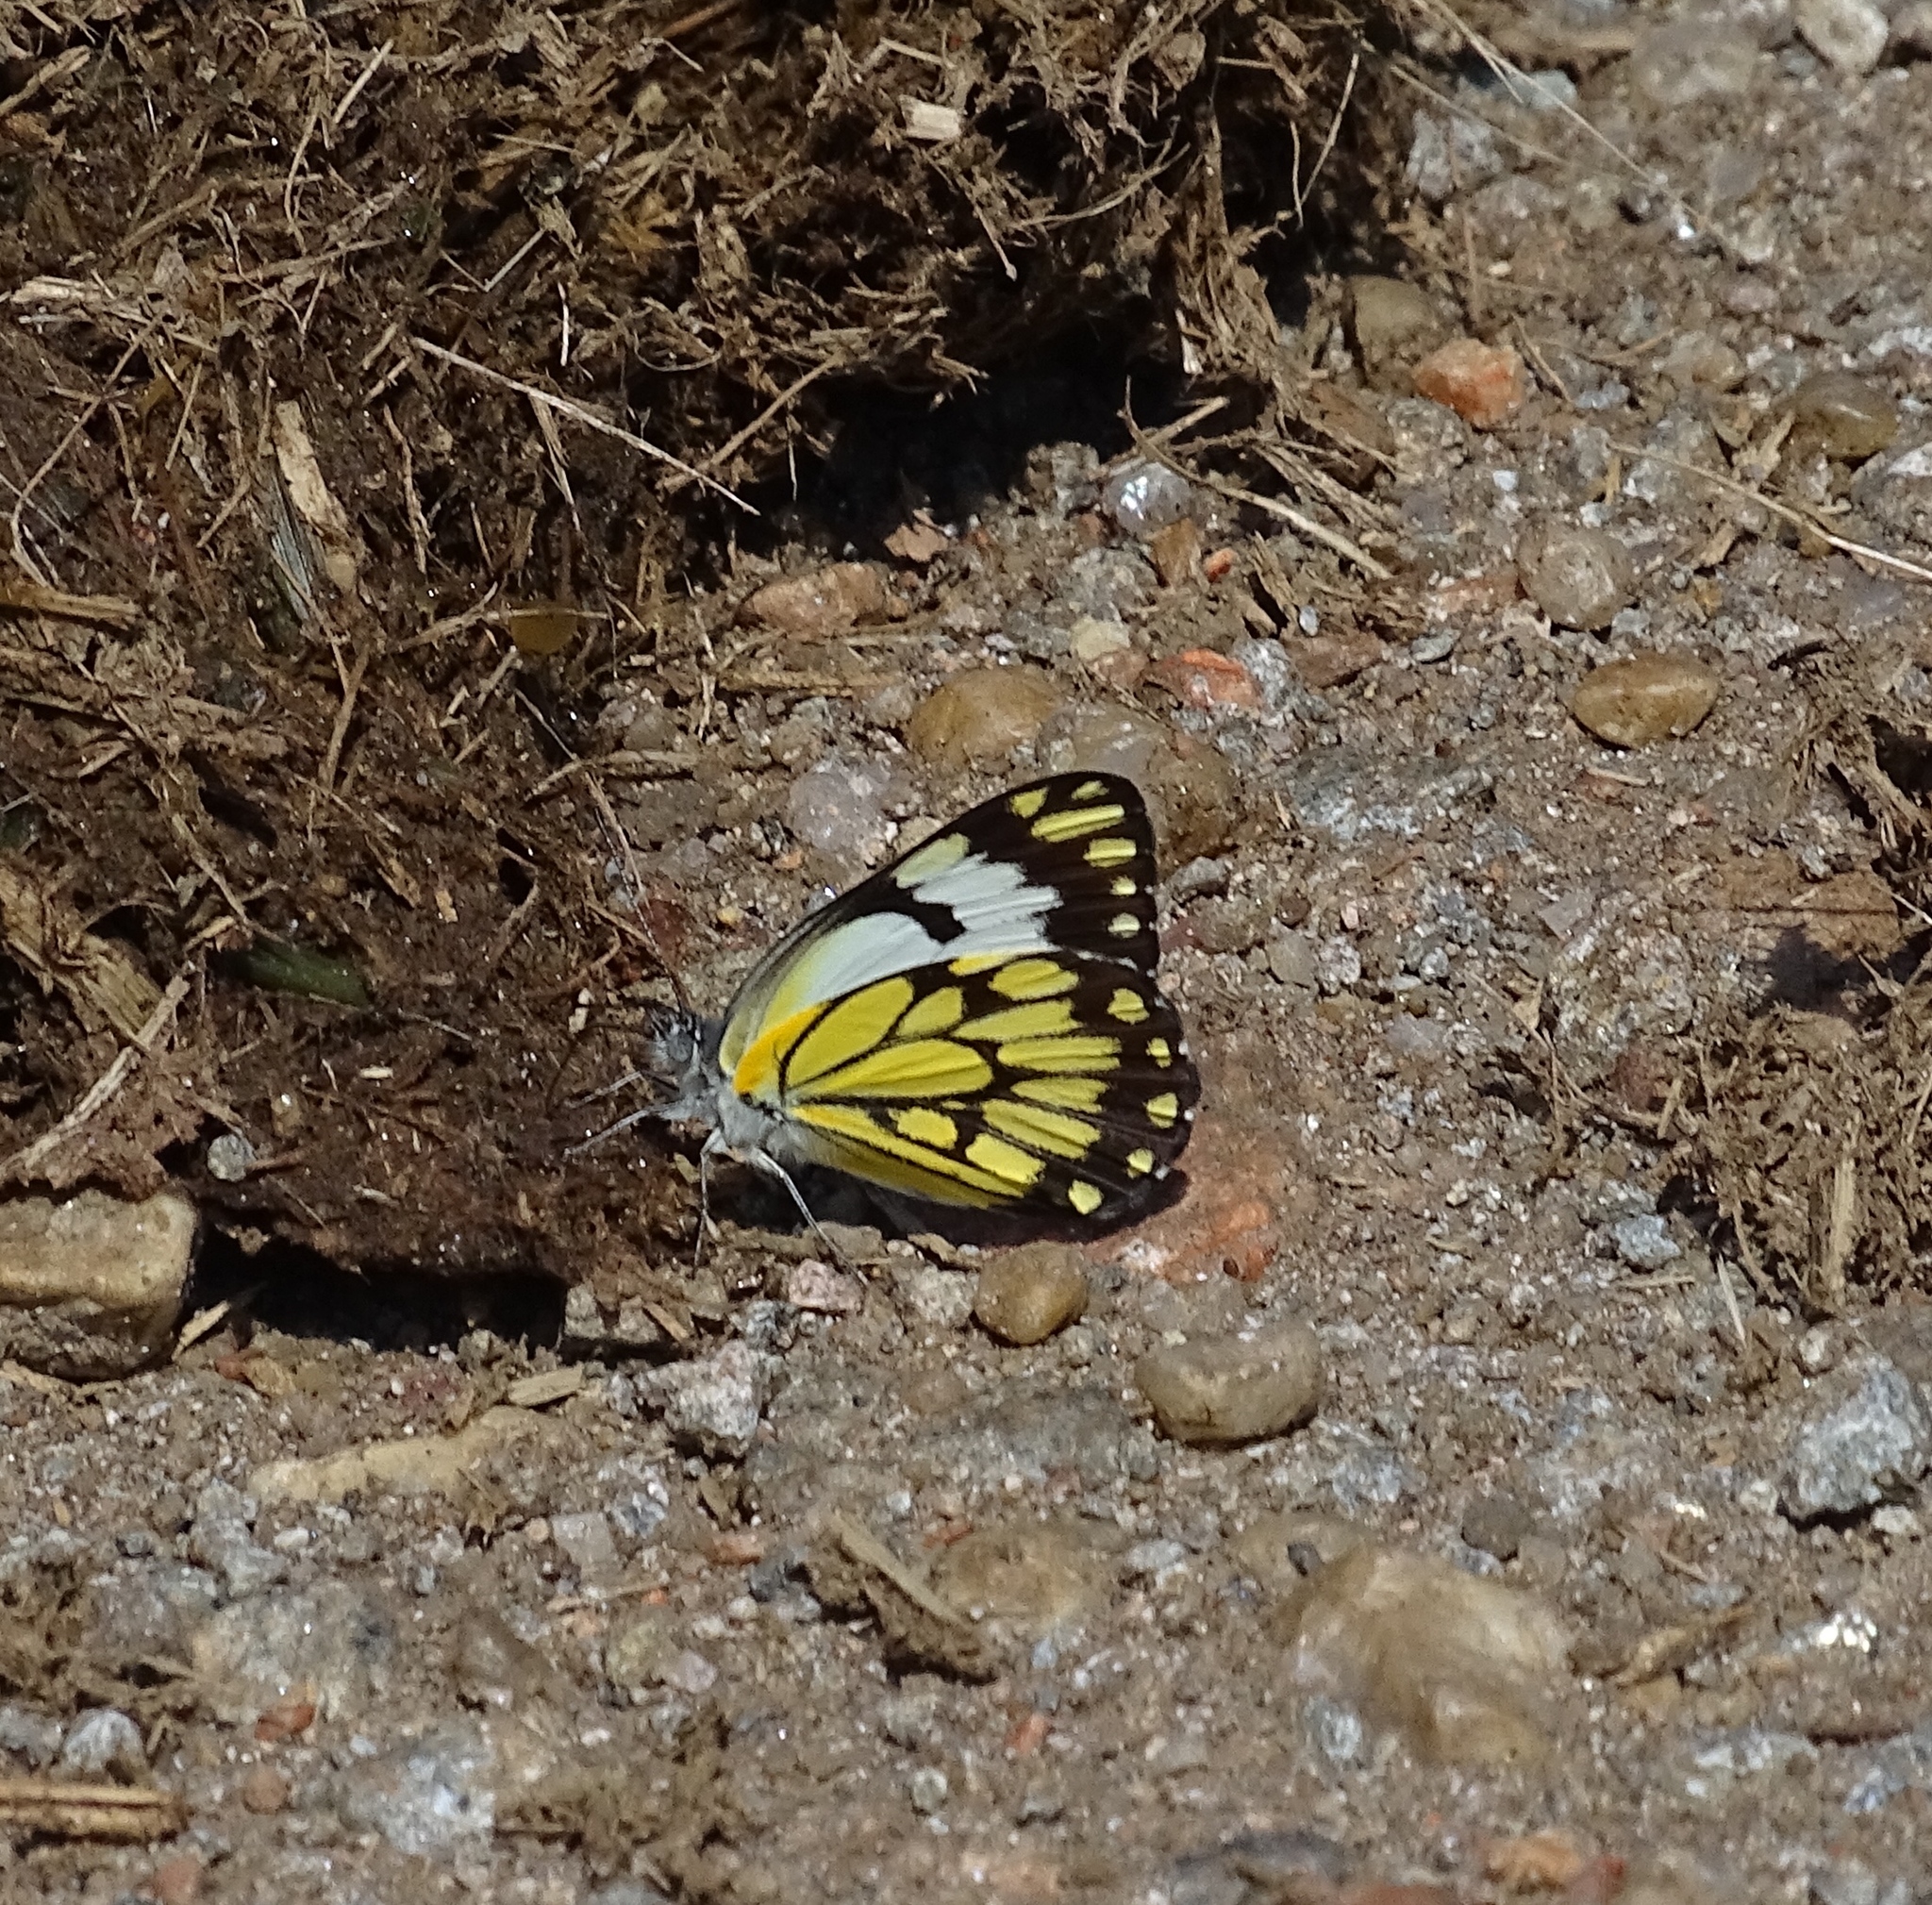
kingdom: Animalia
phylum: Arthropoda
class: Insecta
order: Lepidoptera
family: Pieridae
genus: Belenois
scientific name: Belenois creona
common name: African caper white
